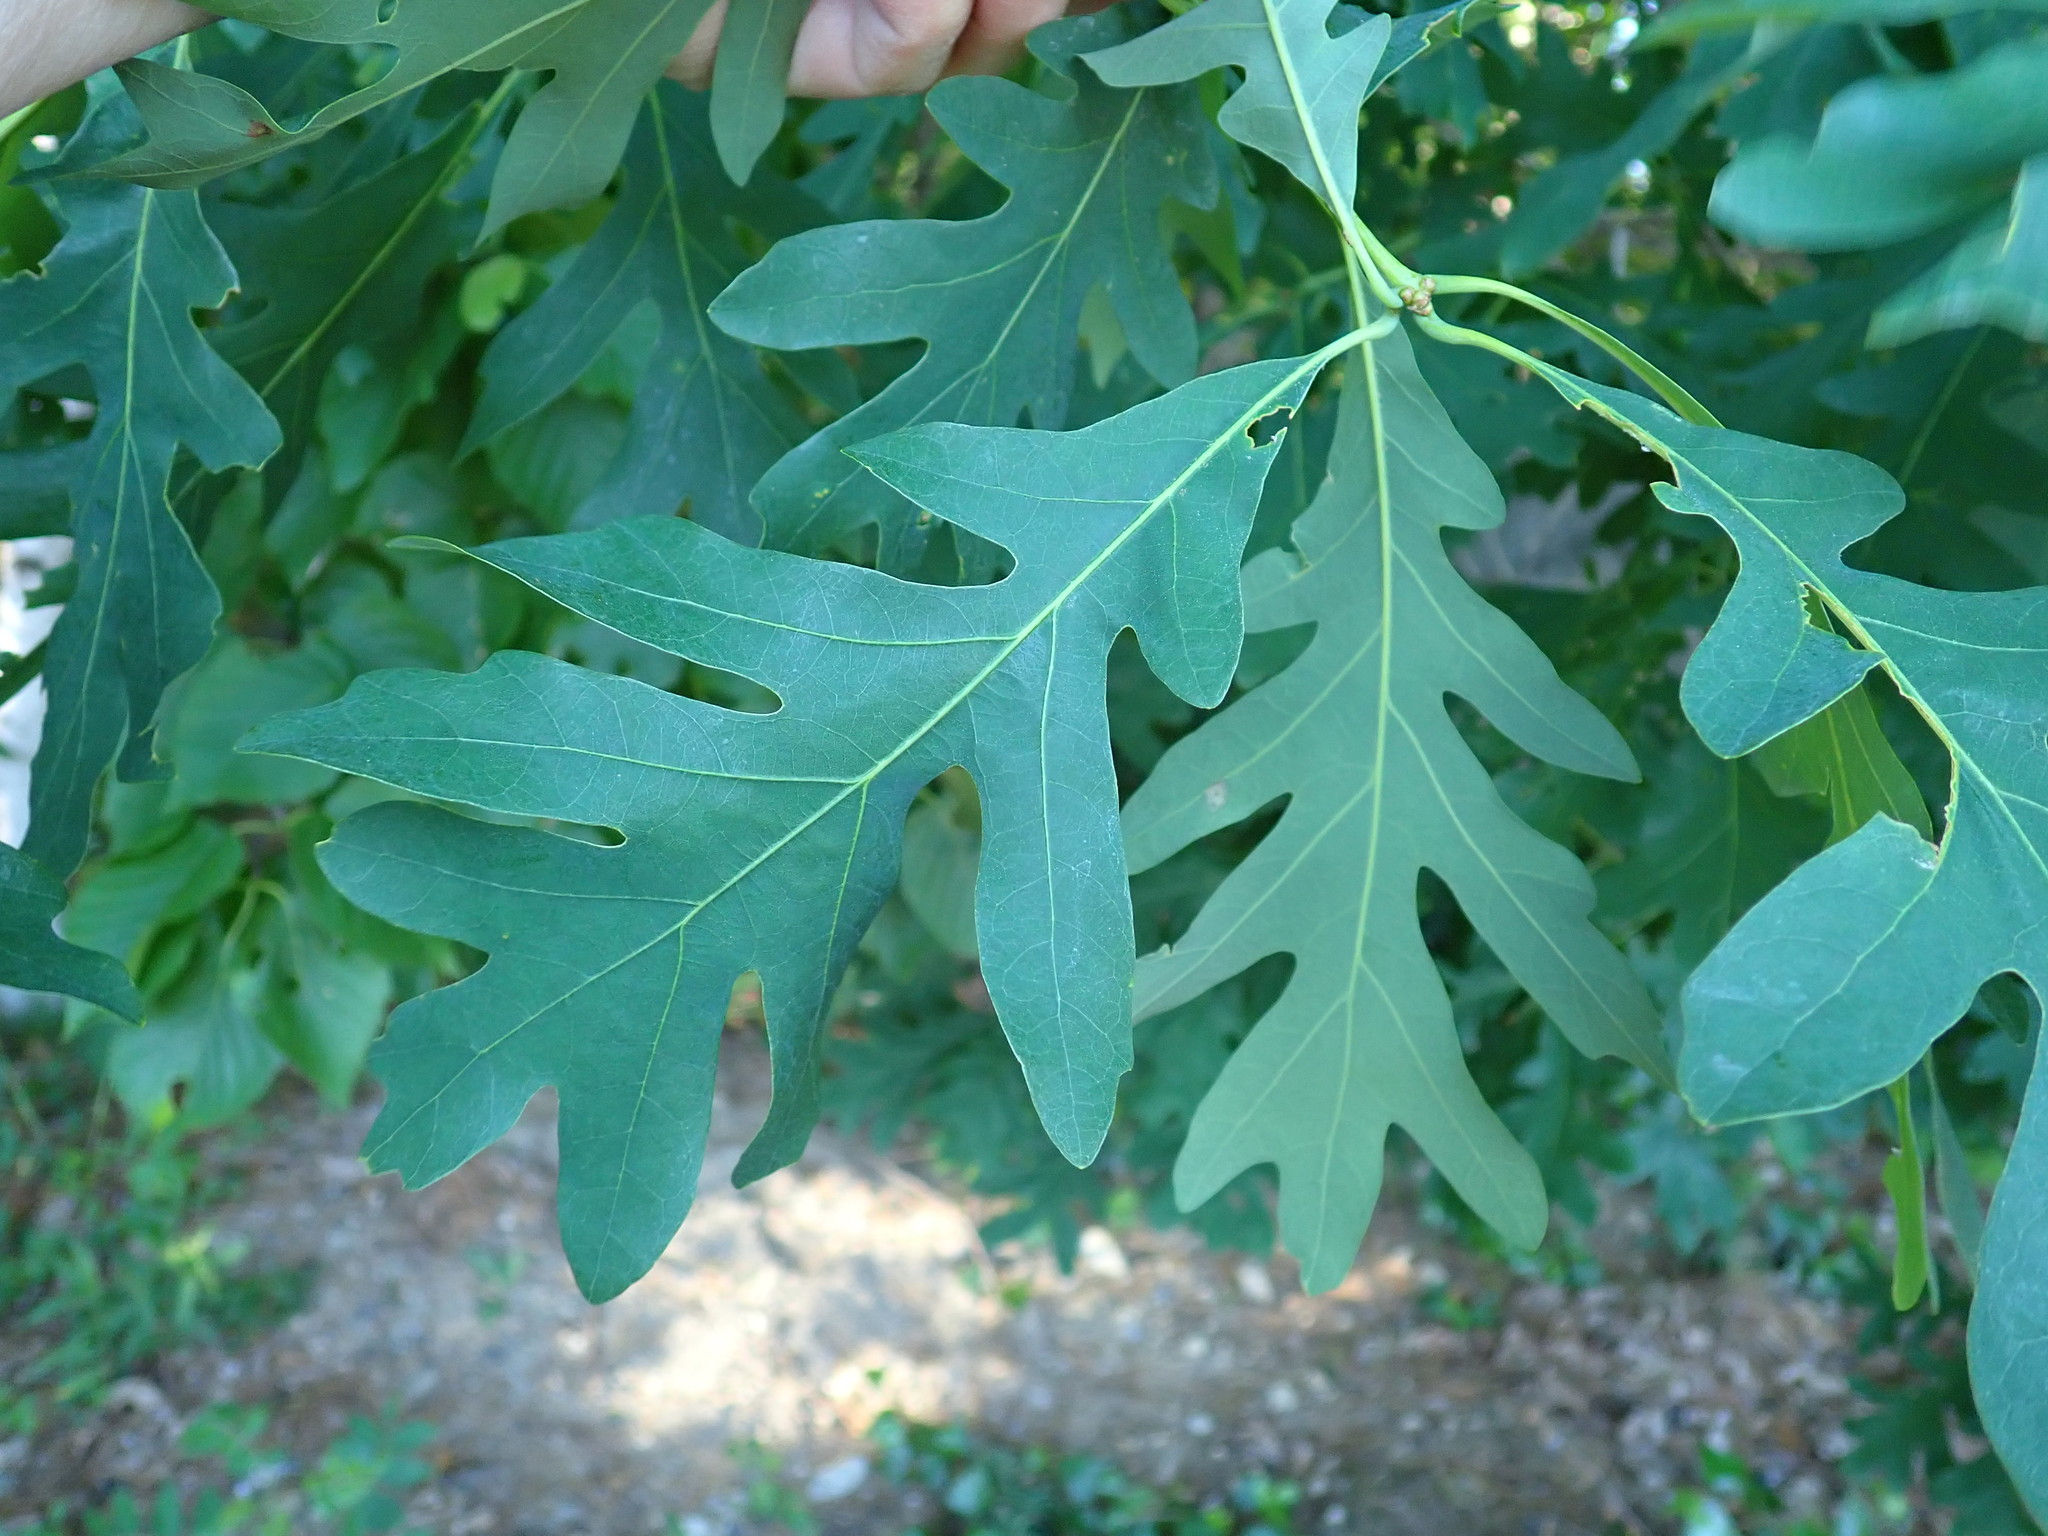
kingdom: Plantae
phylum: Tracheophyta
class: Magnoliopsida
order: Fagales
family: Fagaceae
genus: Quercus
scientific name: Quercus alba
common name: White oak
